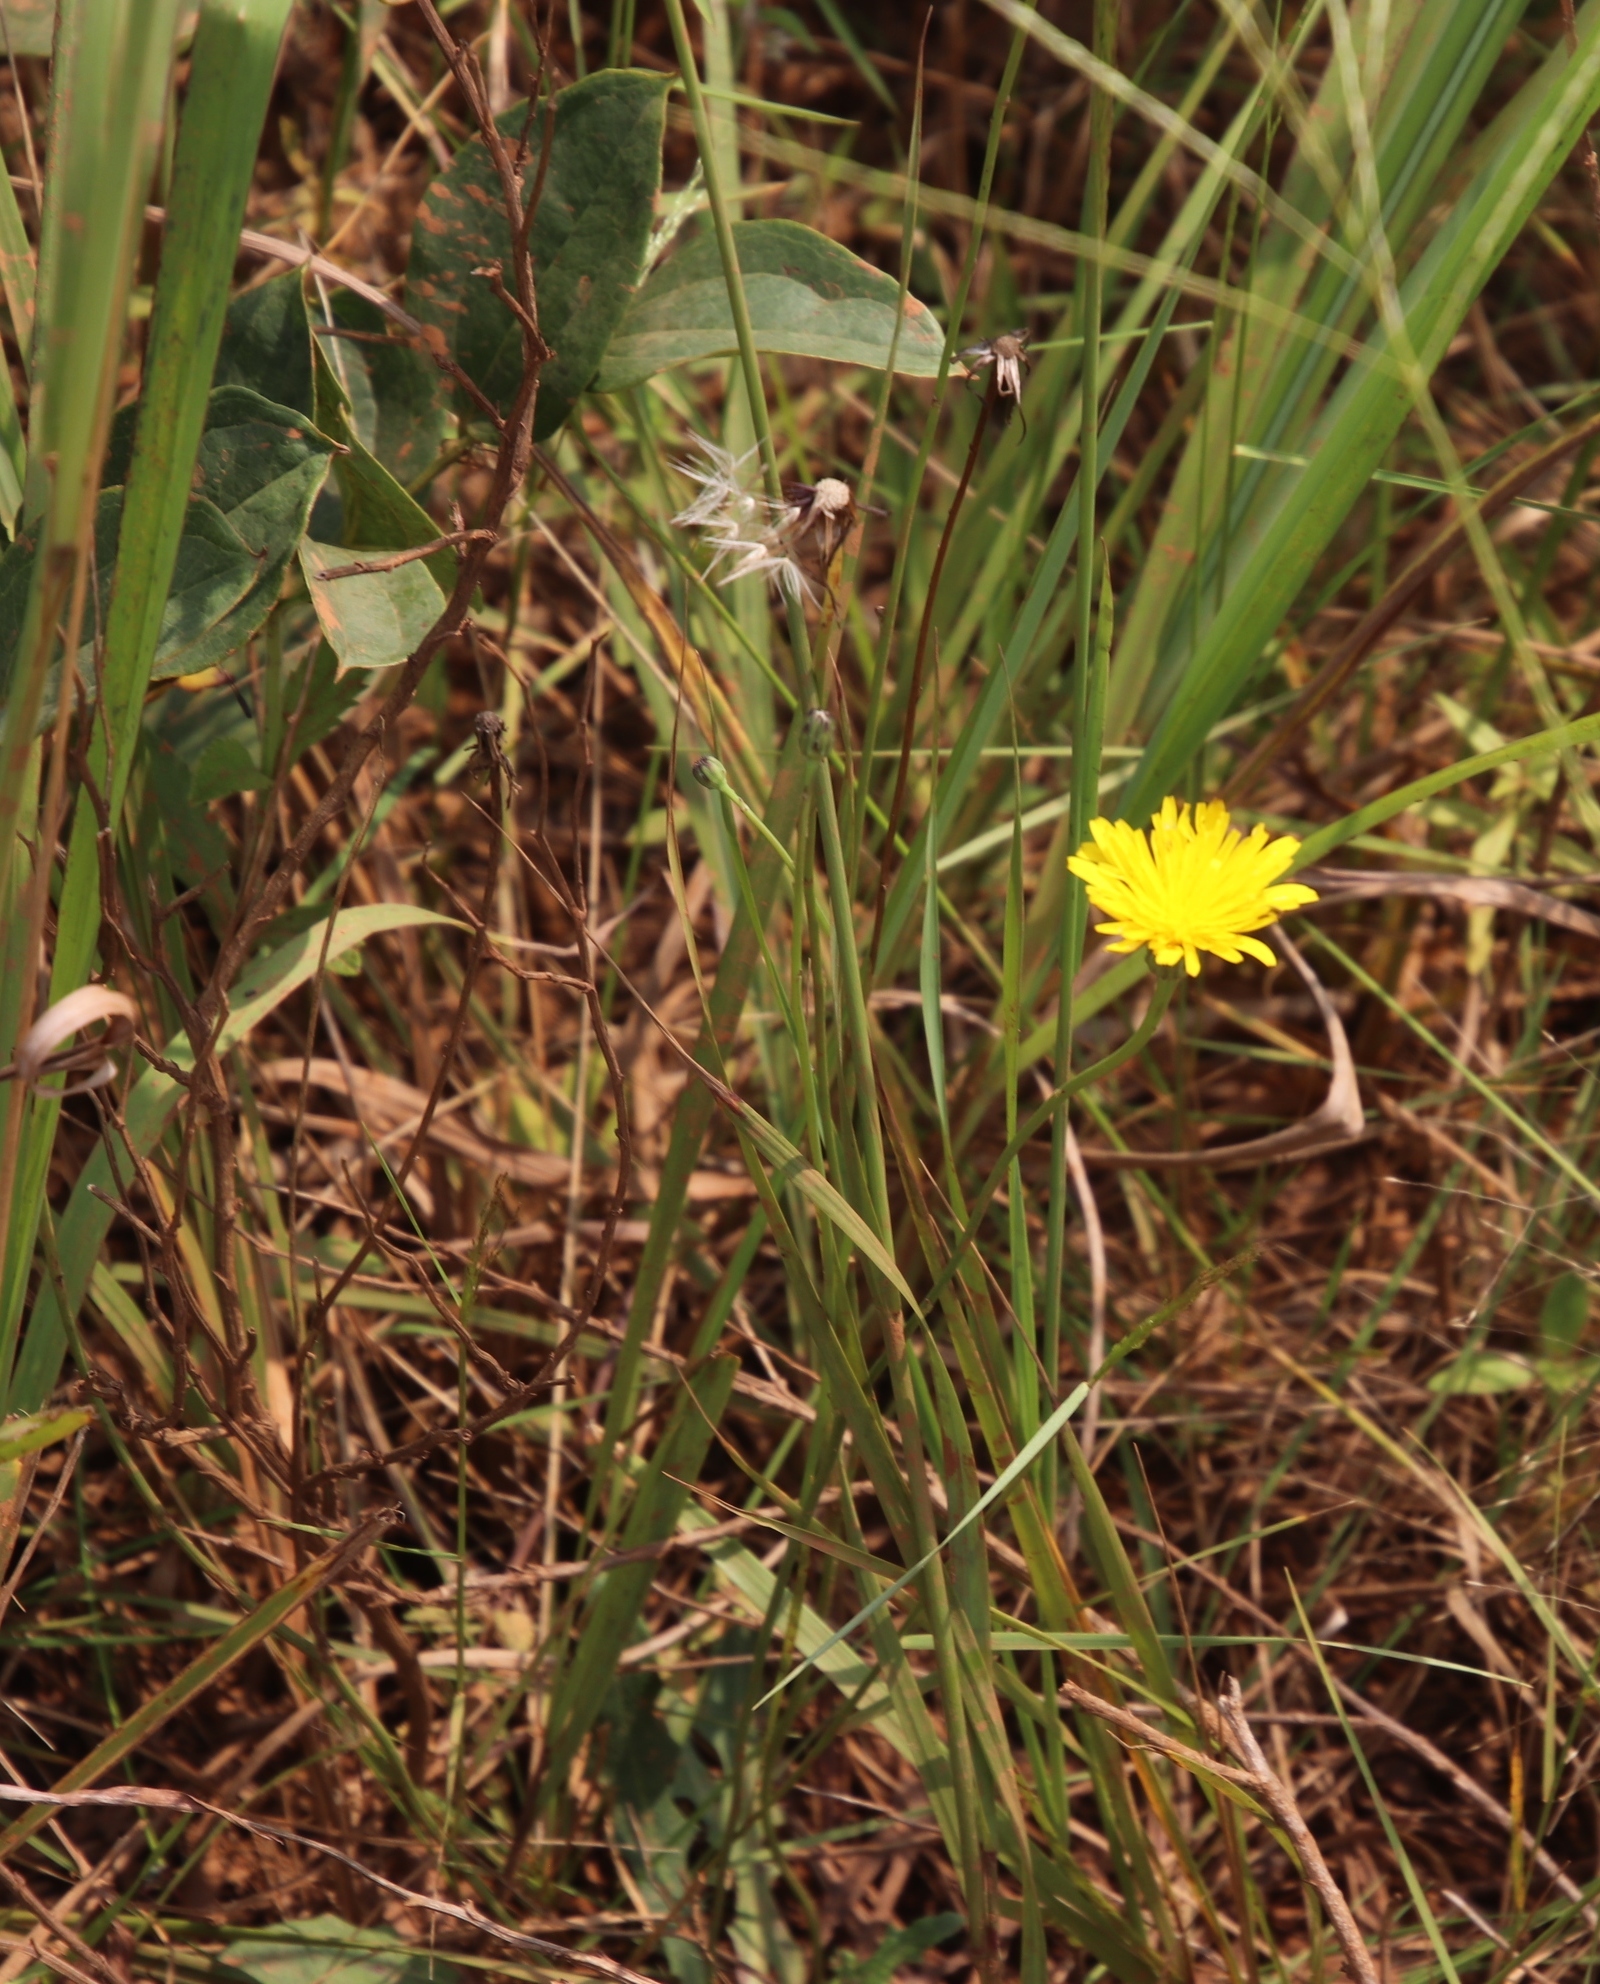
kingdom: Plantae
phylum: Tracheophyta
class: Magnoliopsida
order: Asterales
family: Asteraceae
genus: Hypochaeris
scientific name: Hypochaeris radicata
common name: Flatweed
